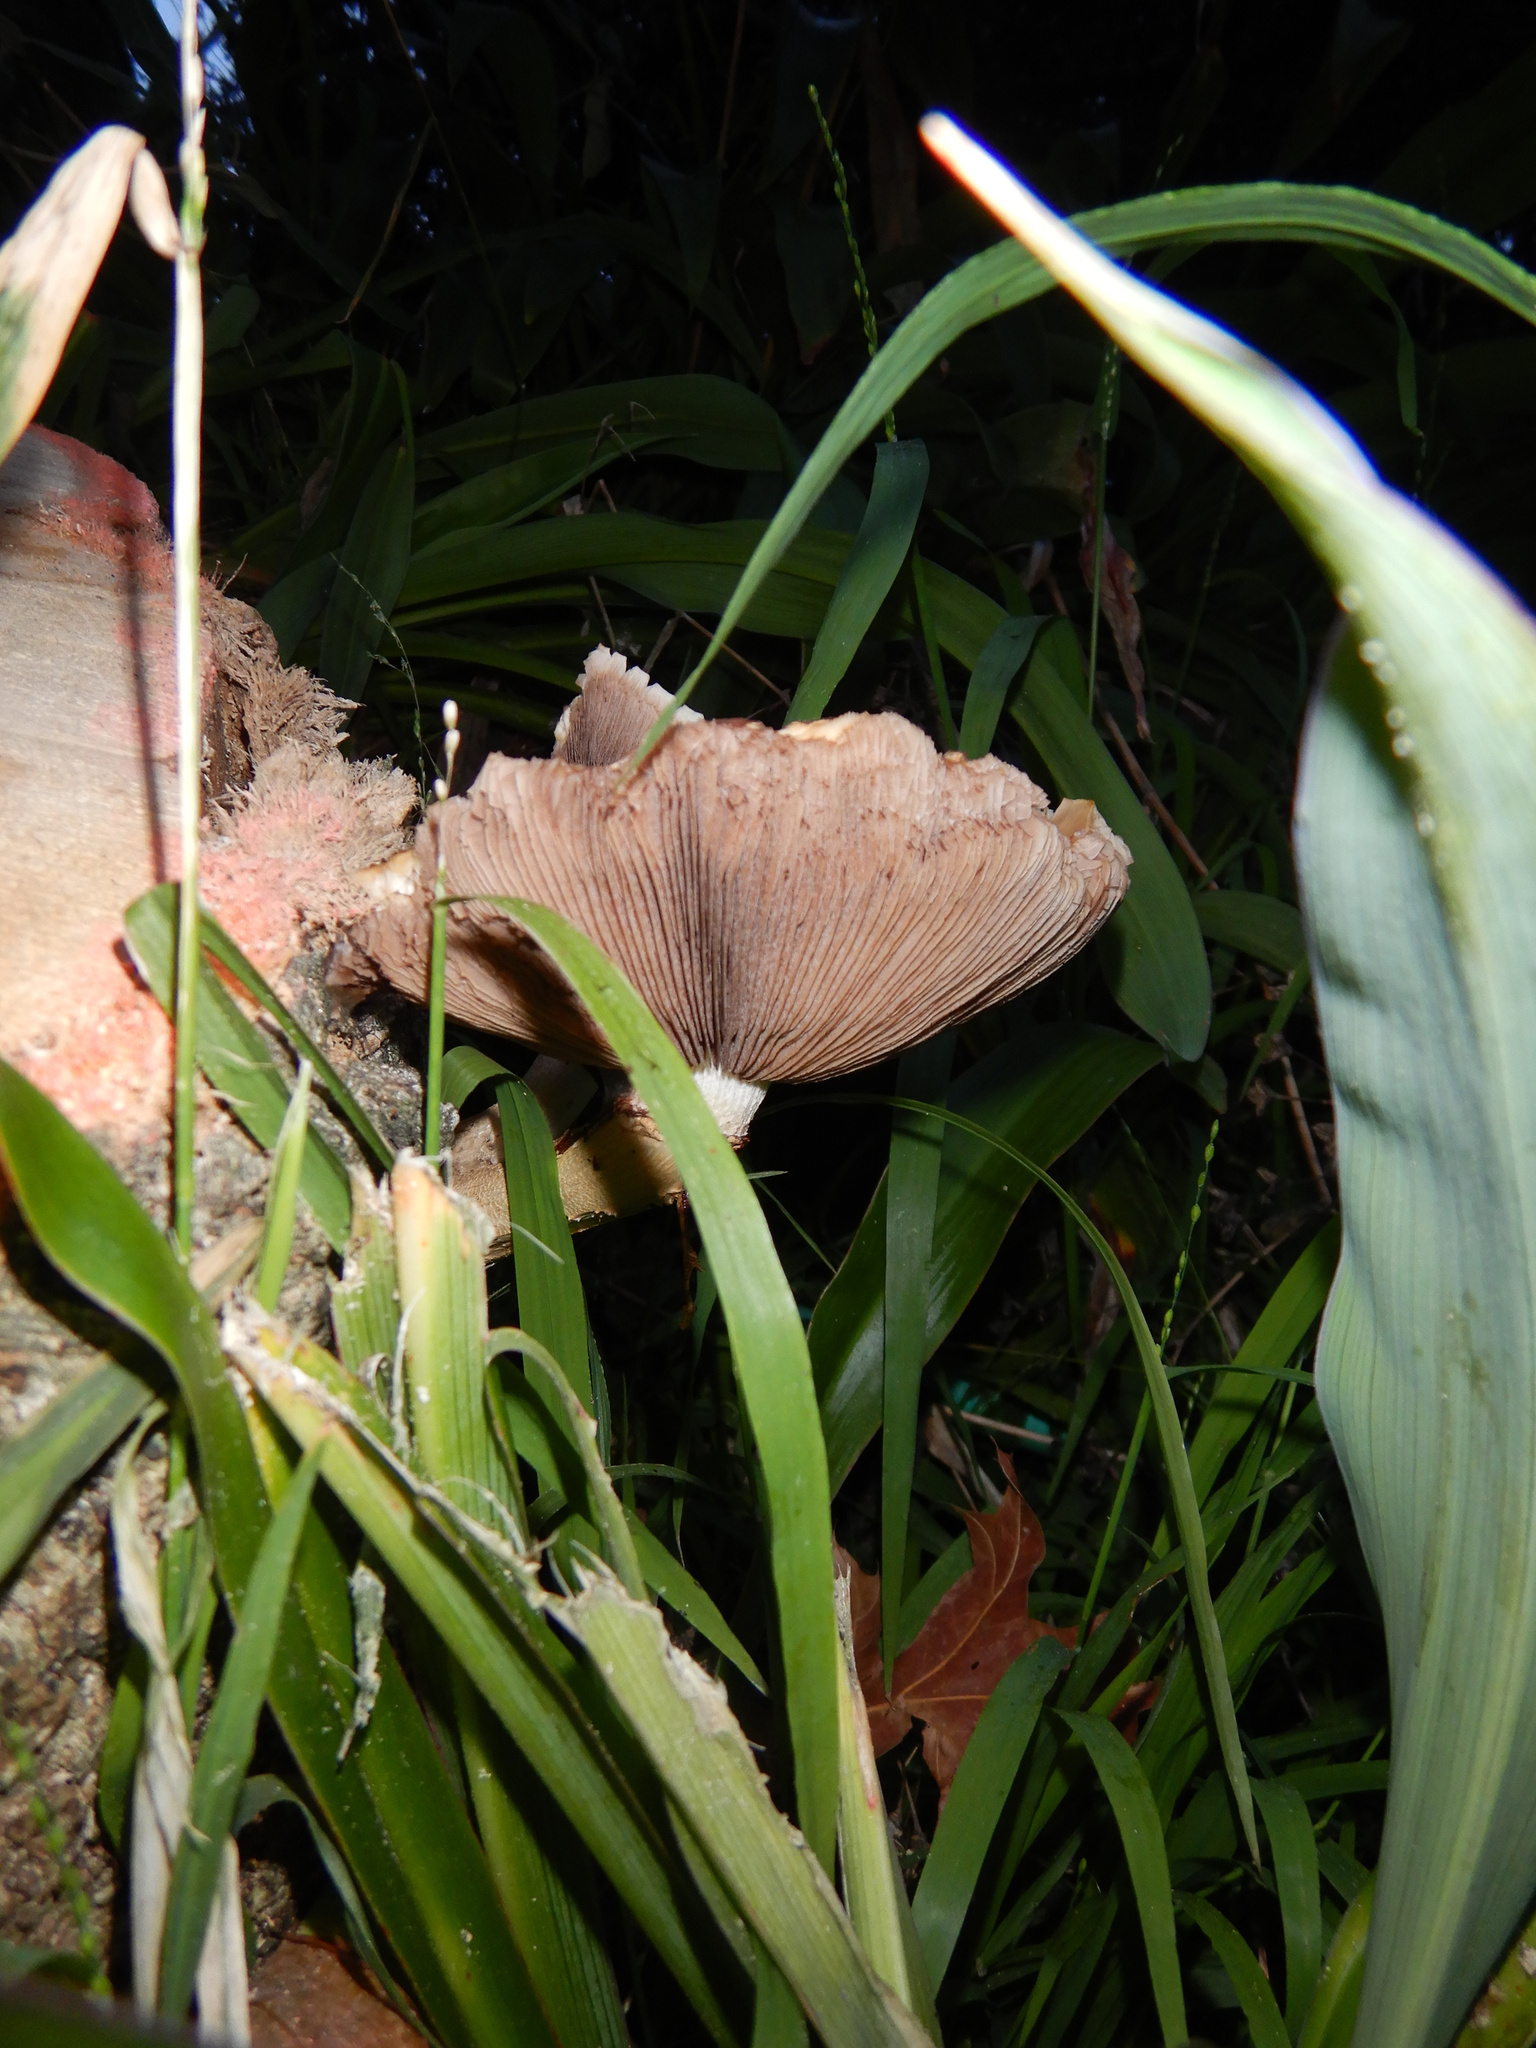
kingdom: Fungi
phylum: Basidiomycota
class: Agaricomycetes
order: Agaricales
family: Tubariaceae
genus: Cyclocybe
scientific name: Cyclocybe parasitica
